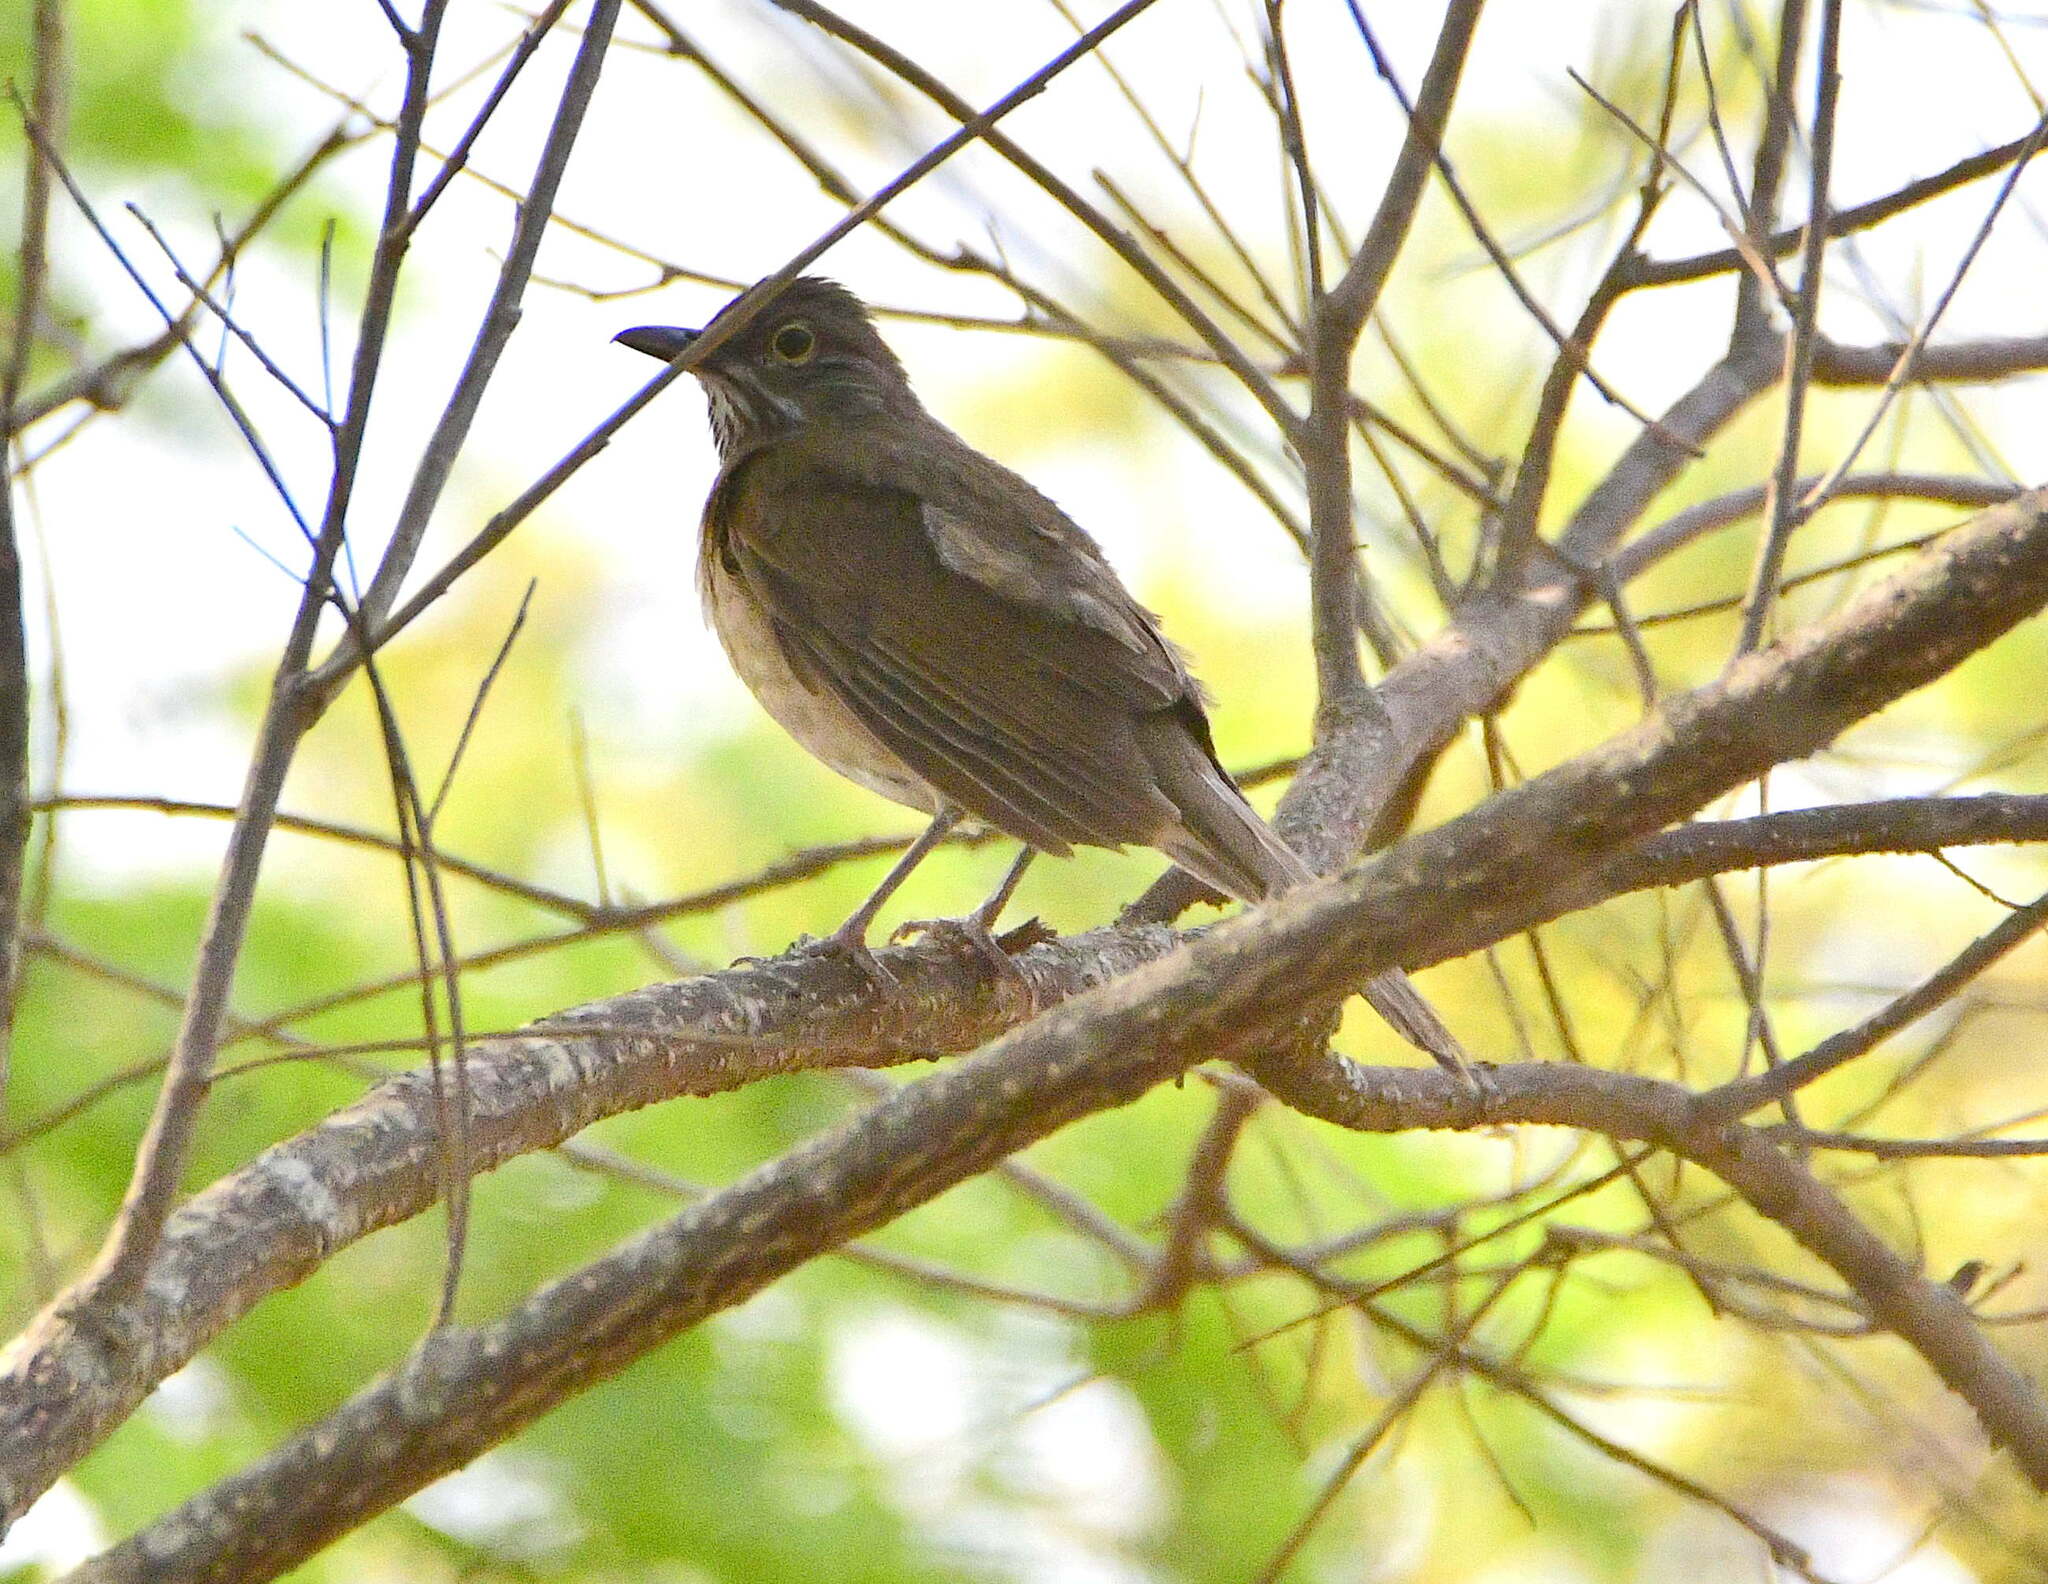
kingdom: Animalia
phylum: Chordata
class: Aves
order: Passeriformes
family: Turdidae
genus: Turdus
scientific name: Turdus assimilis
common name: White-throated thrush
